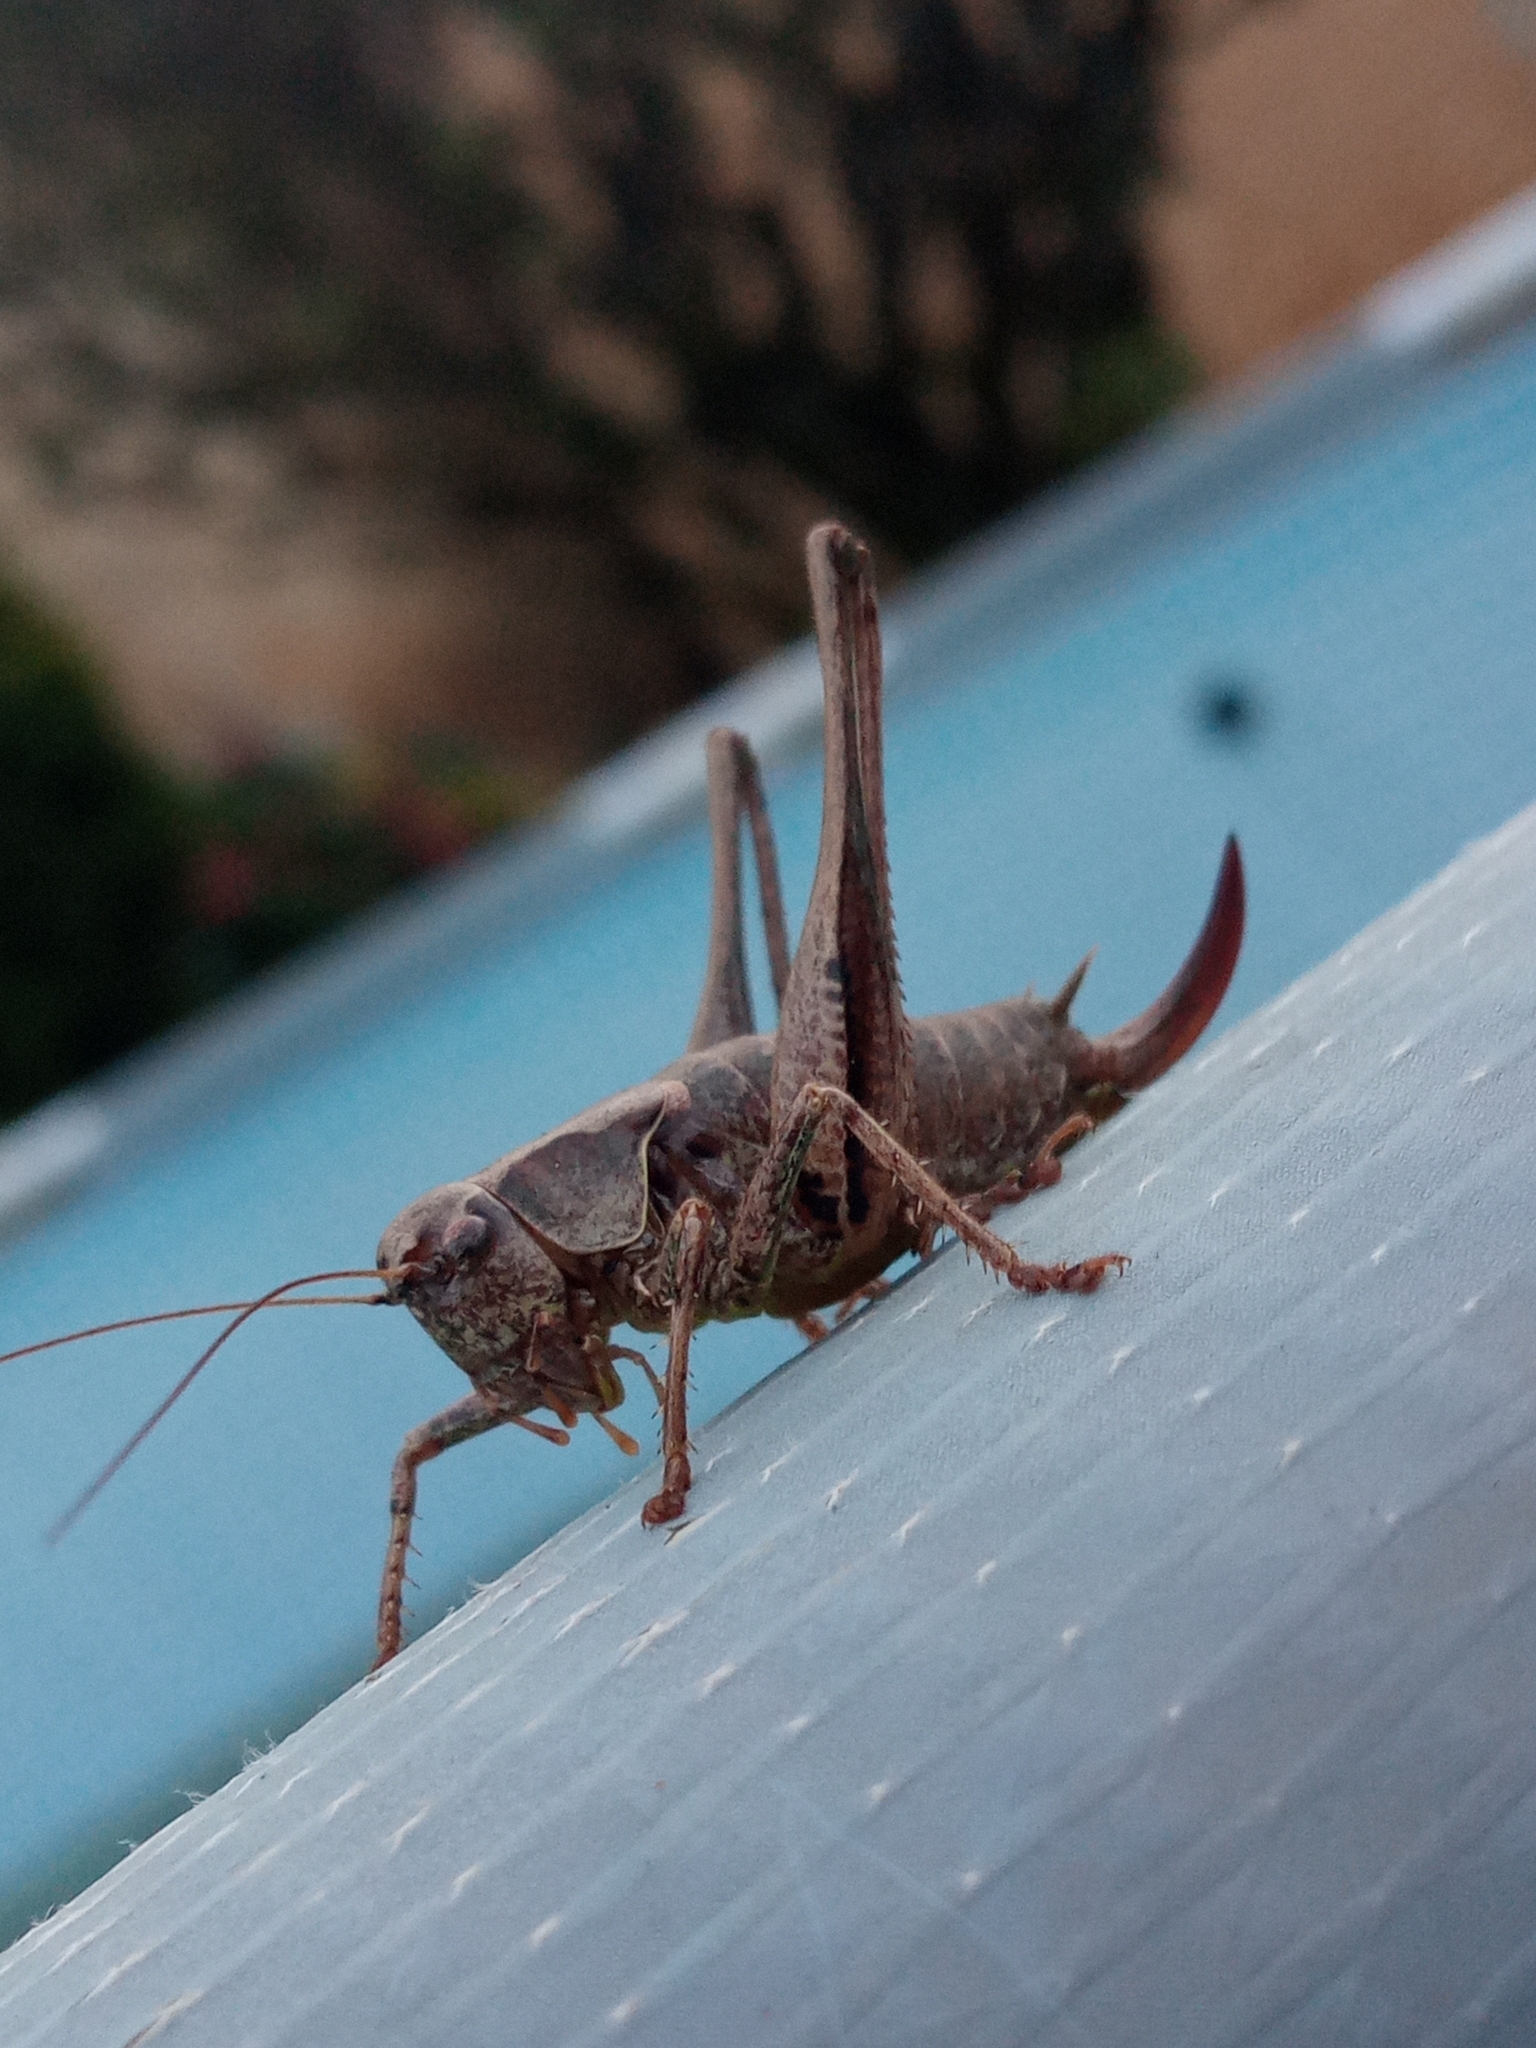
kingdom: Animalia
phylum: Arthropoda
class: Insecta
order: Orthoptera
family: Tettigoniidae
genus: Pholidoptera
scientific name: Pholidoptera griseoaptera
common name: Dark bush-cricket
